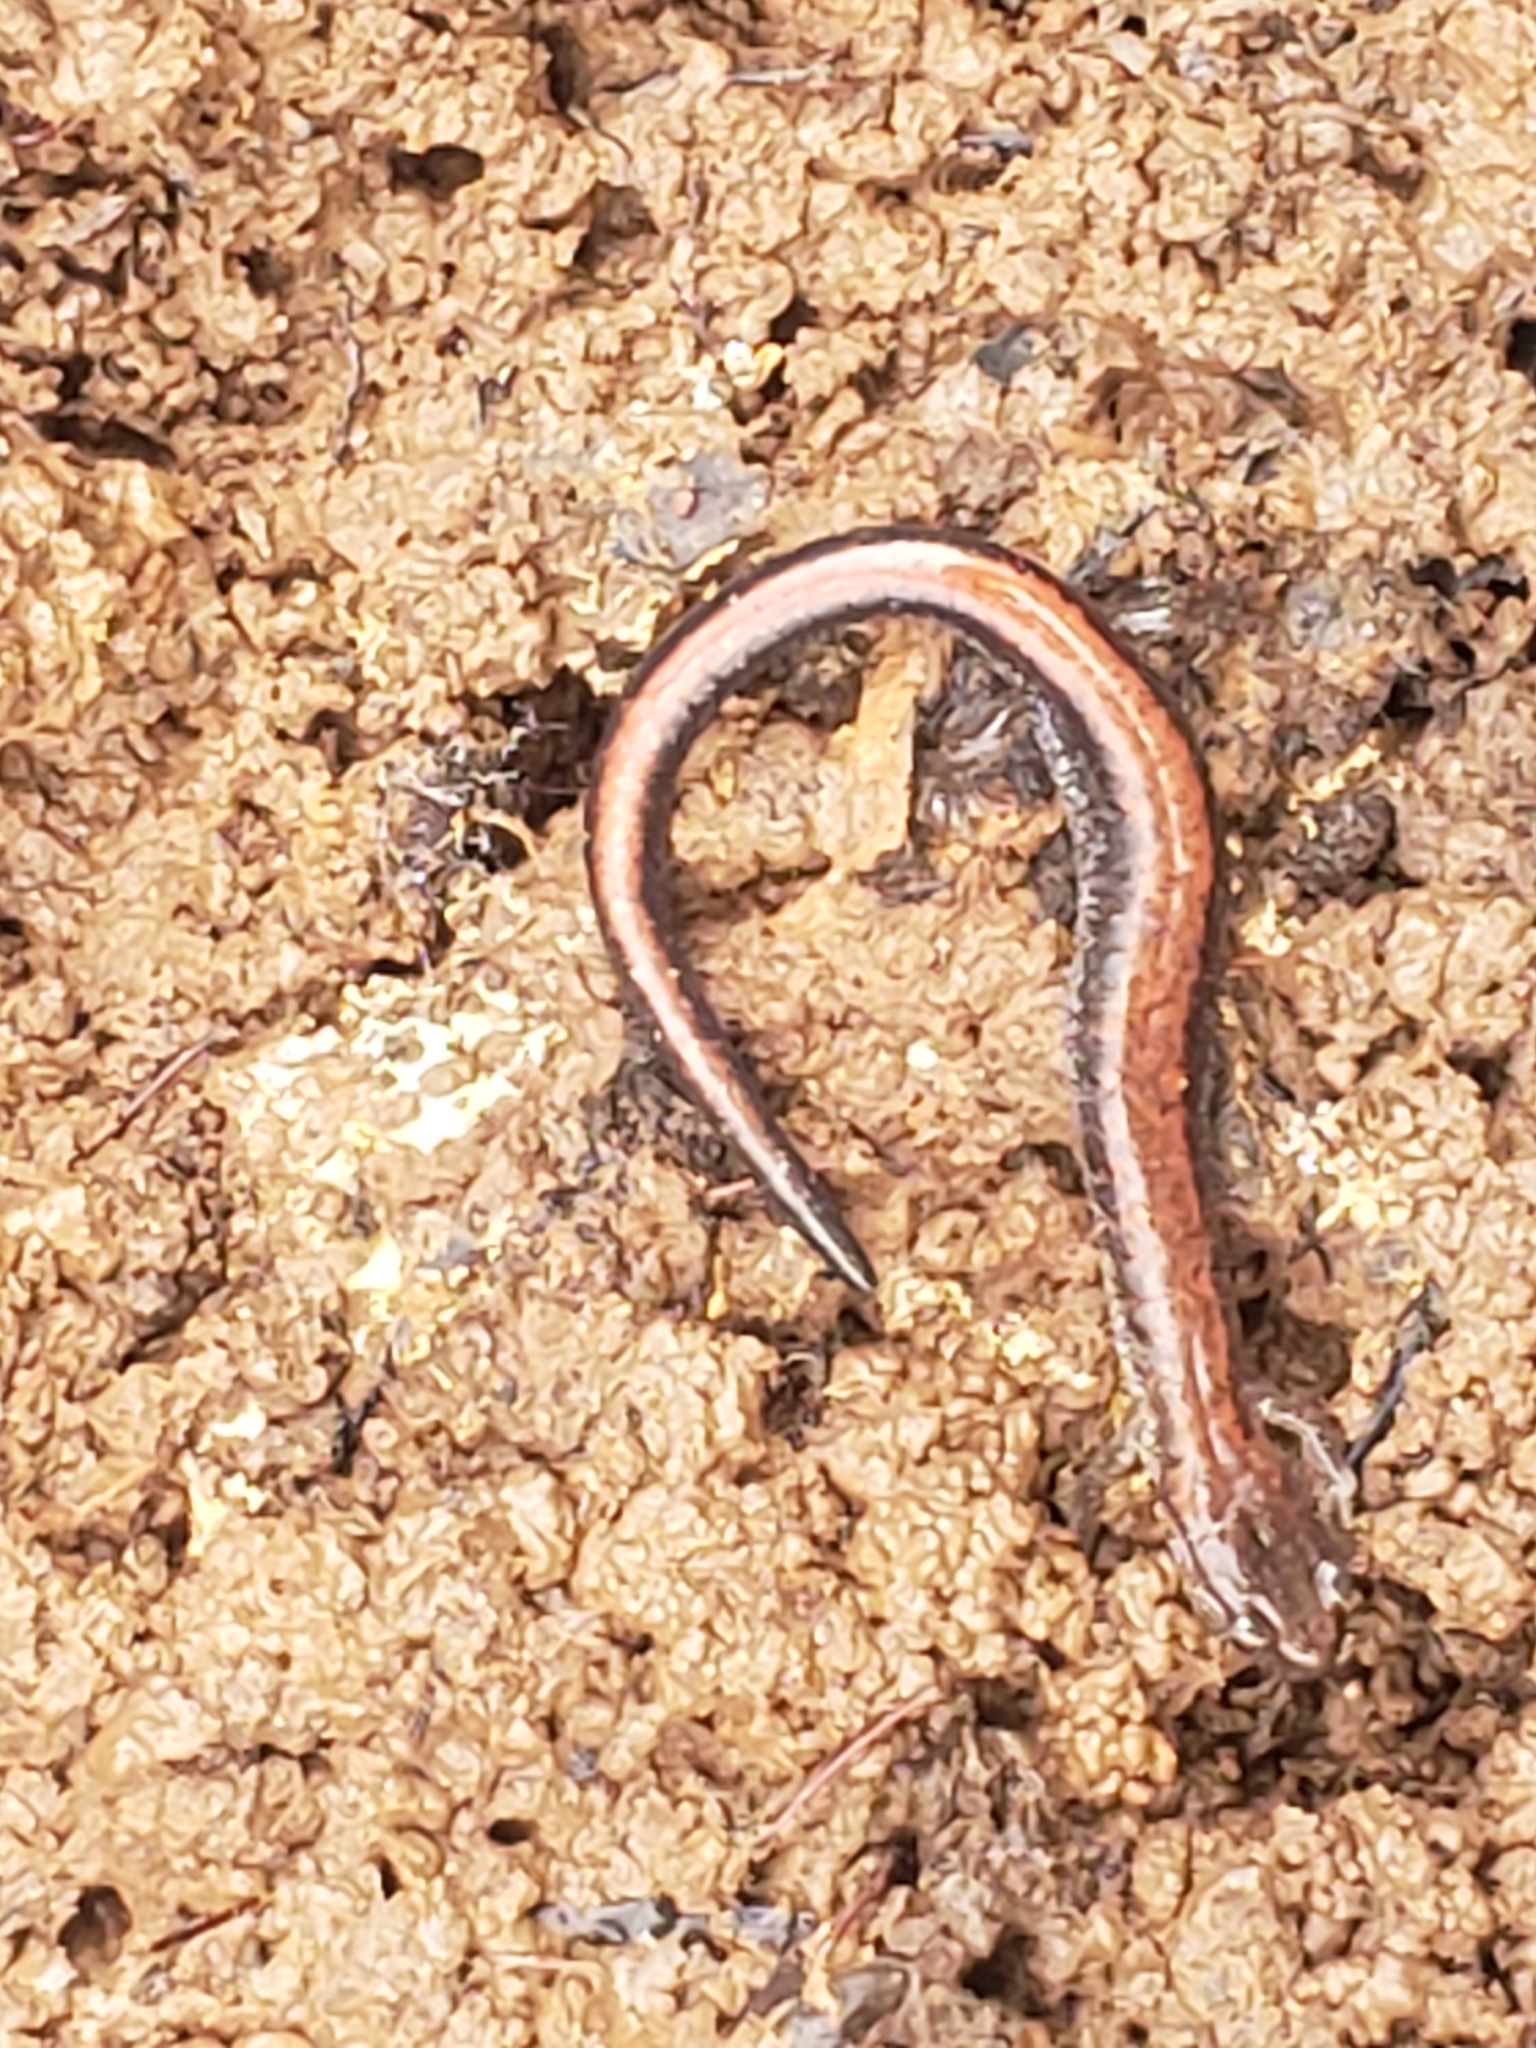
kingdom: Animalia
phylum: Chordata
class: Amphibia
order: Caudata
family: Plethodontidae
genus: Plethodon
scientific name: Plethodon cinereus
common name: Redback salamander
